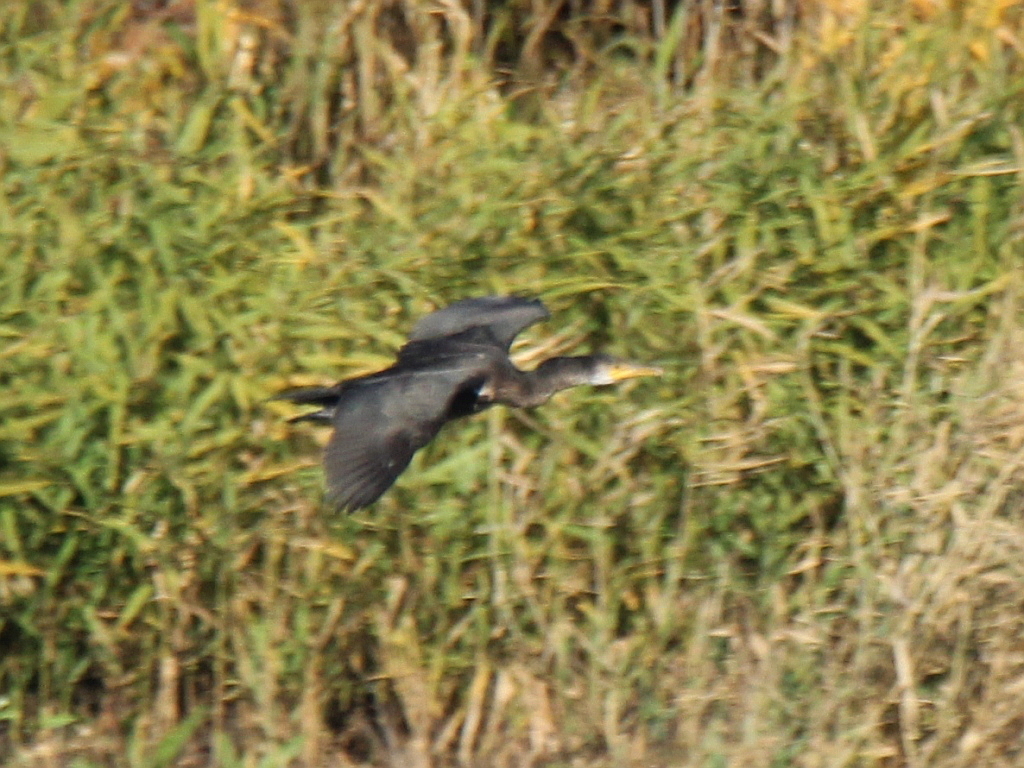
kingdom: Animalia
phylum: Chordata
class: Aves
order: Suliformes
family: Phalacrocoracidae
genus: Phalacrocorax
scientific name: Phalacrocorax carbo
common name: Great cormorant
